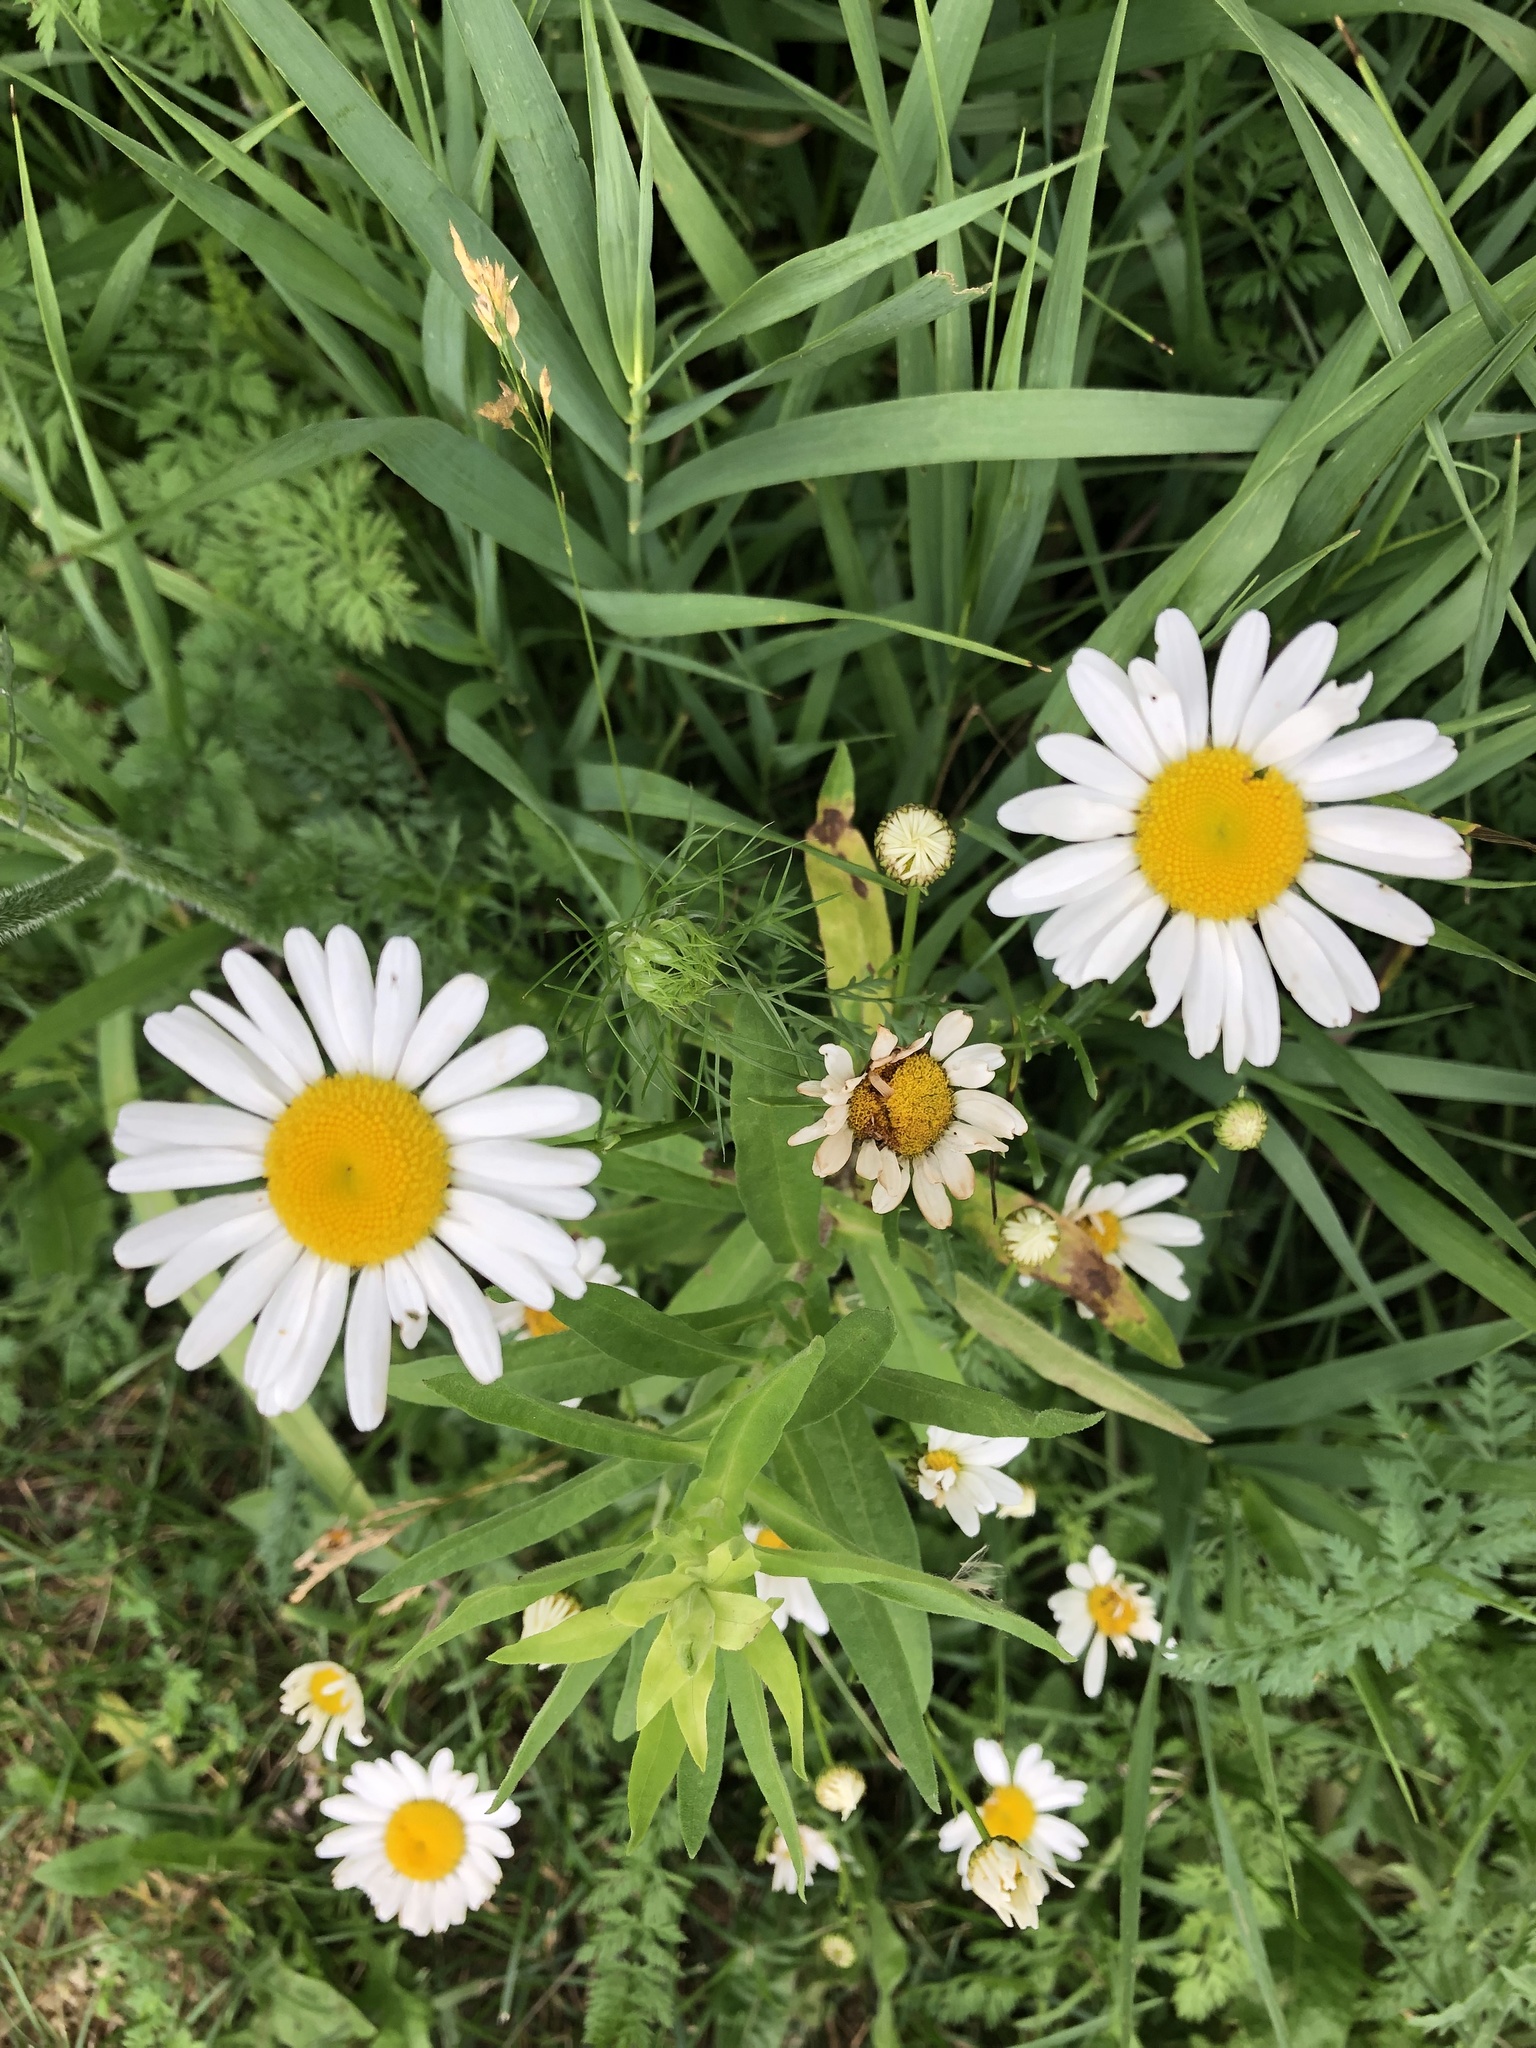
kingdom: Plantae
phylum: Tracheophyta
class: Magnoliopsida
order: Asterales
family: Asteraceae
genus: Leucanthemum
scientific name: Leucanthemum vulgare
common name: Oxeye daisy
